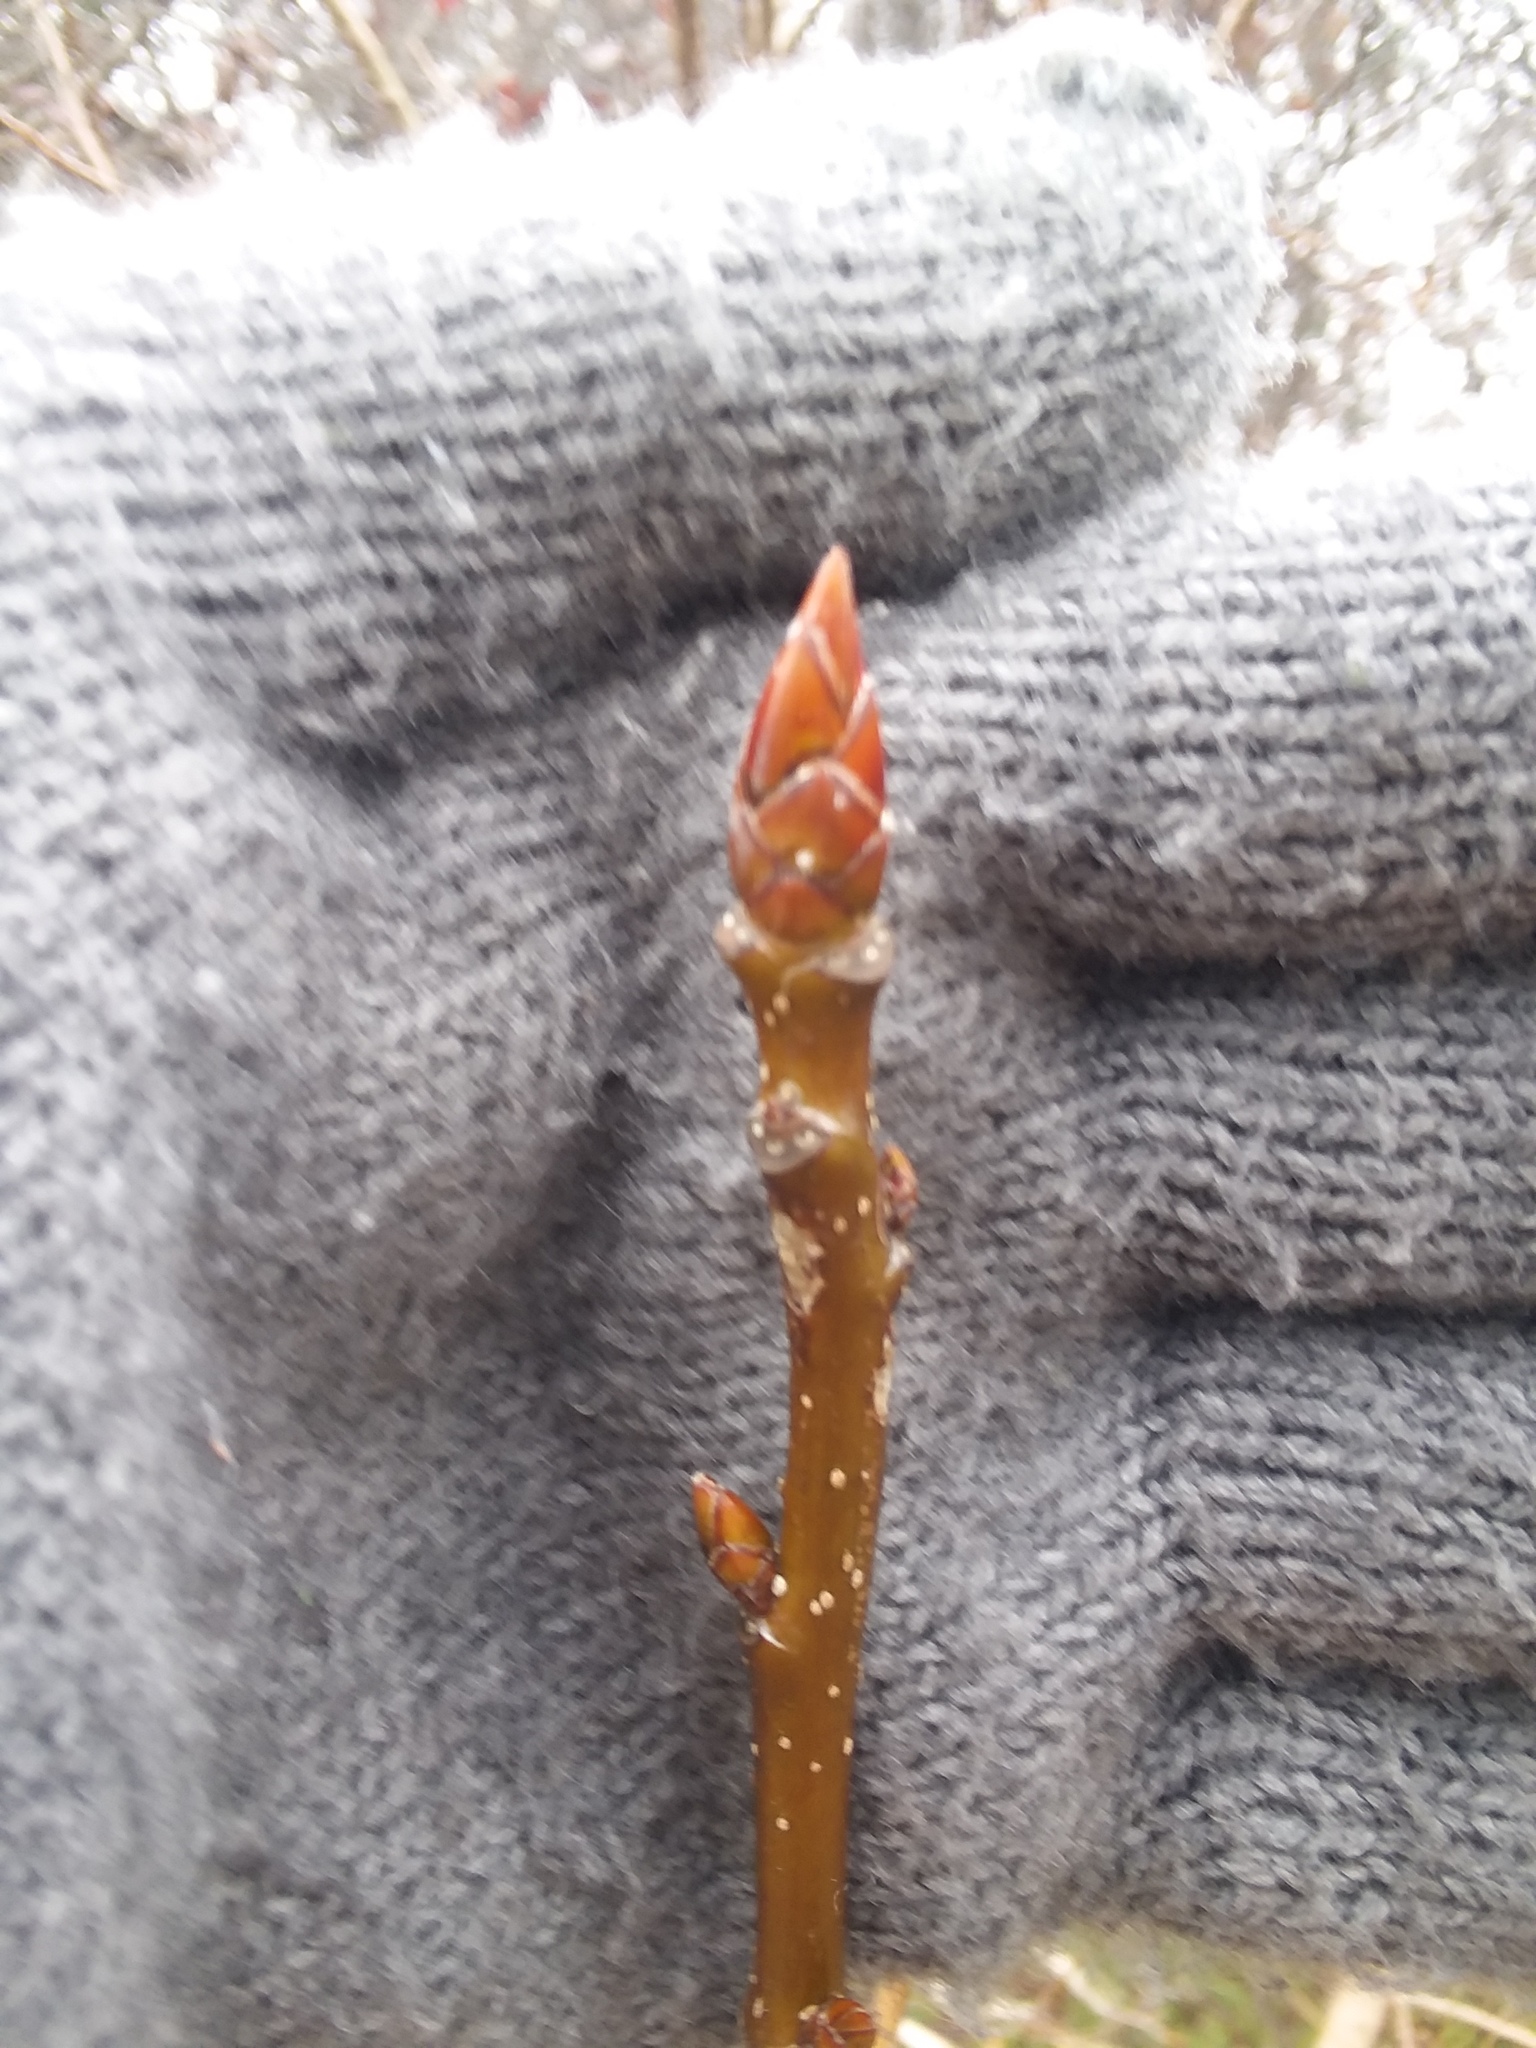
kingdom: Plantae
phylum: Tracheophyta
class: Magnoliopsida
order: Saxifragales
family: Altingiaceae
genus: Liquidambar
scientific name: Liquidambar styraciflua
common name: Sweet gum
